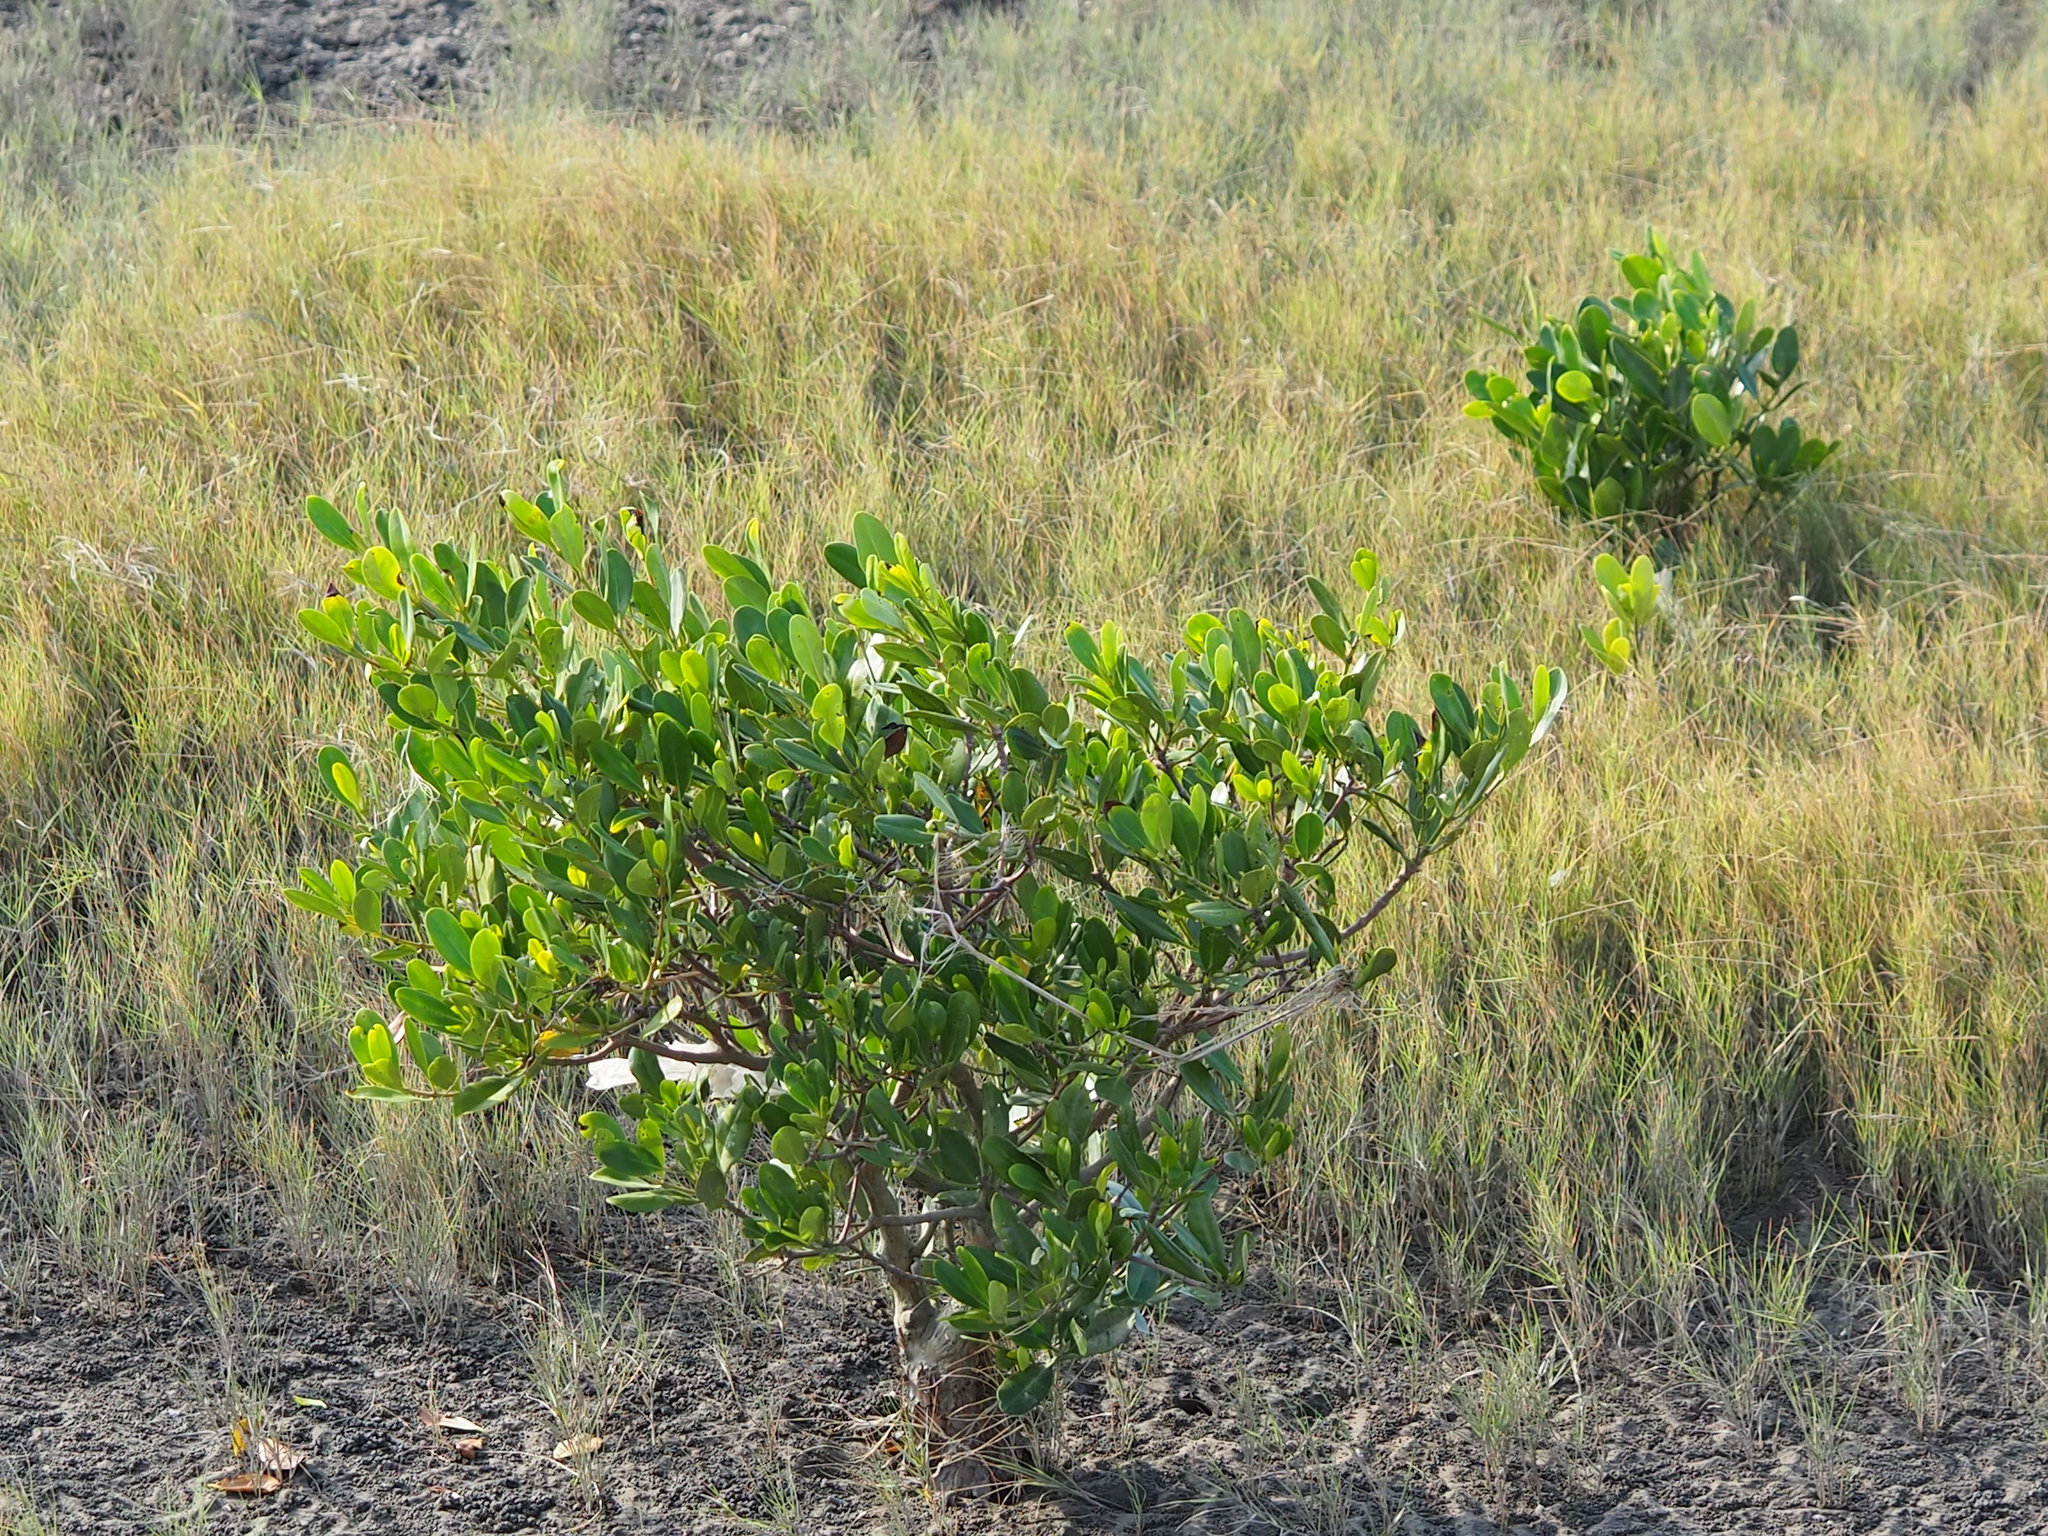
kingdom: Plantae
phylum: Tracheophyta
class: Magnoliopsida
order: Malpighiales
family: Rhizophoraceae
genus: Kandelia
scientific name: Kandelia obovata
